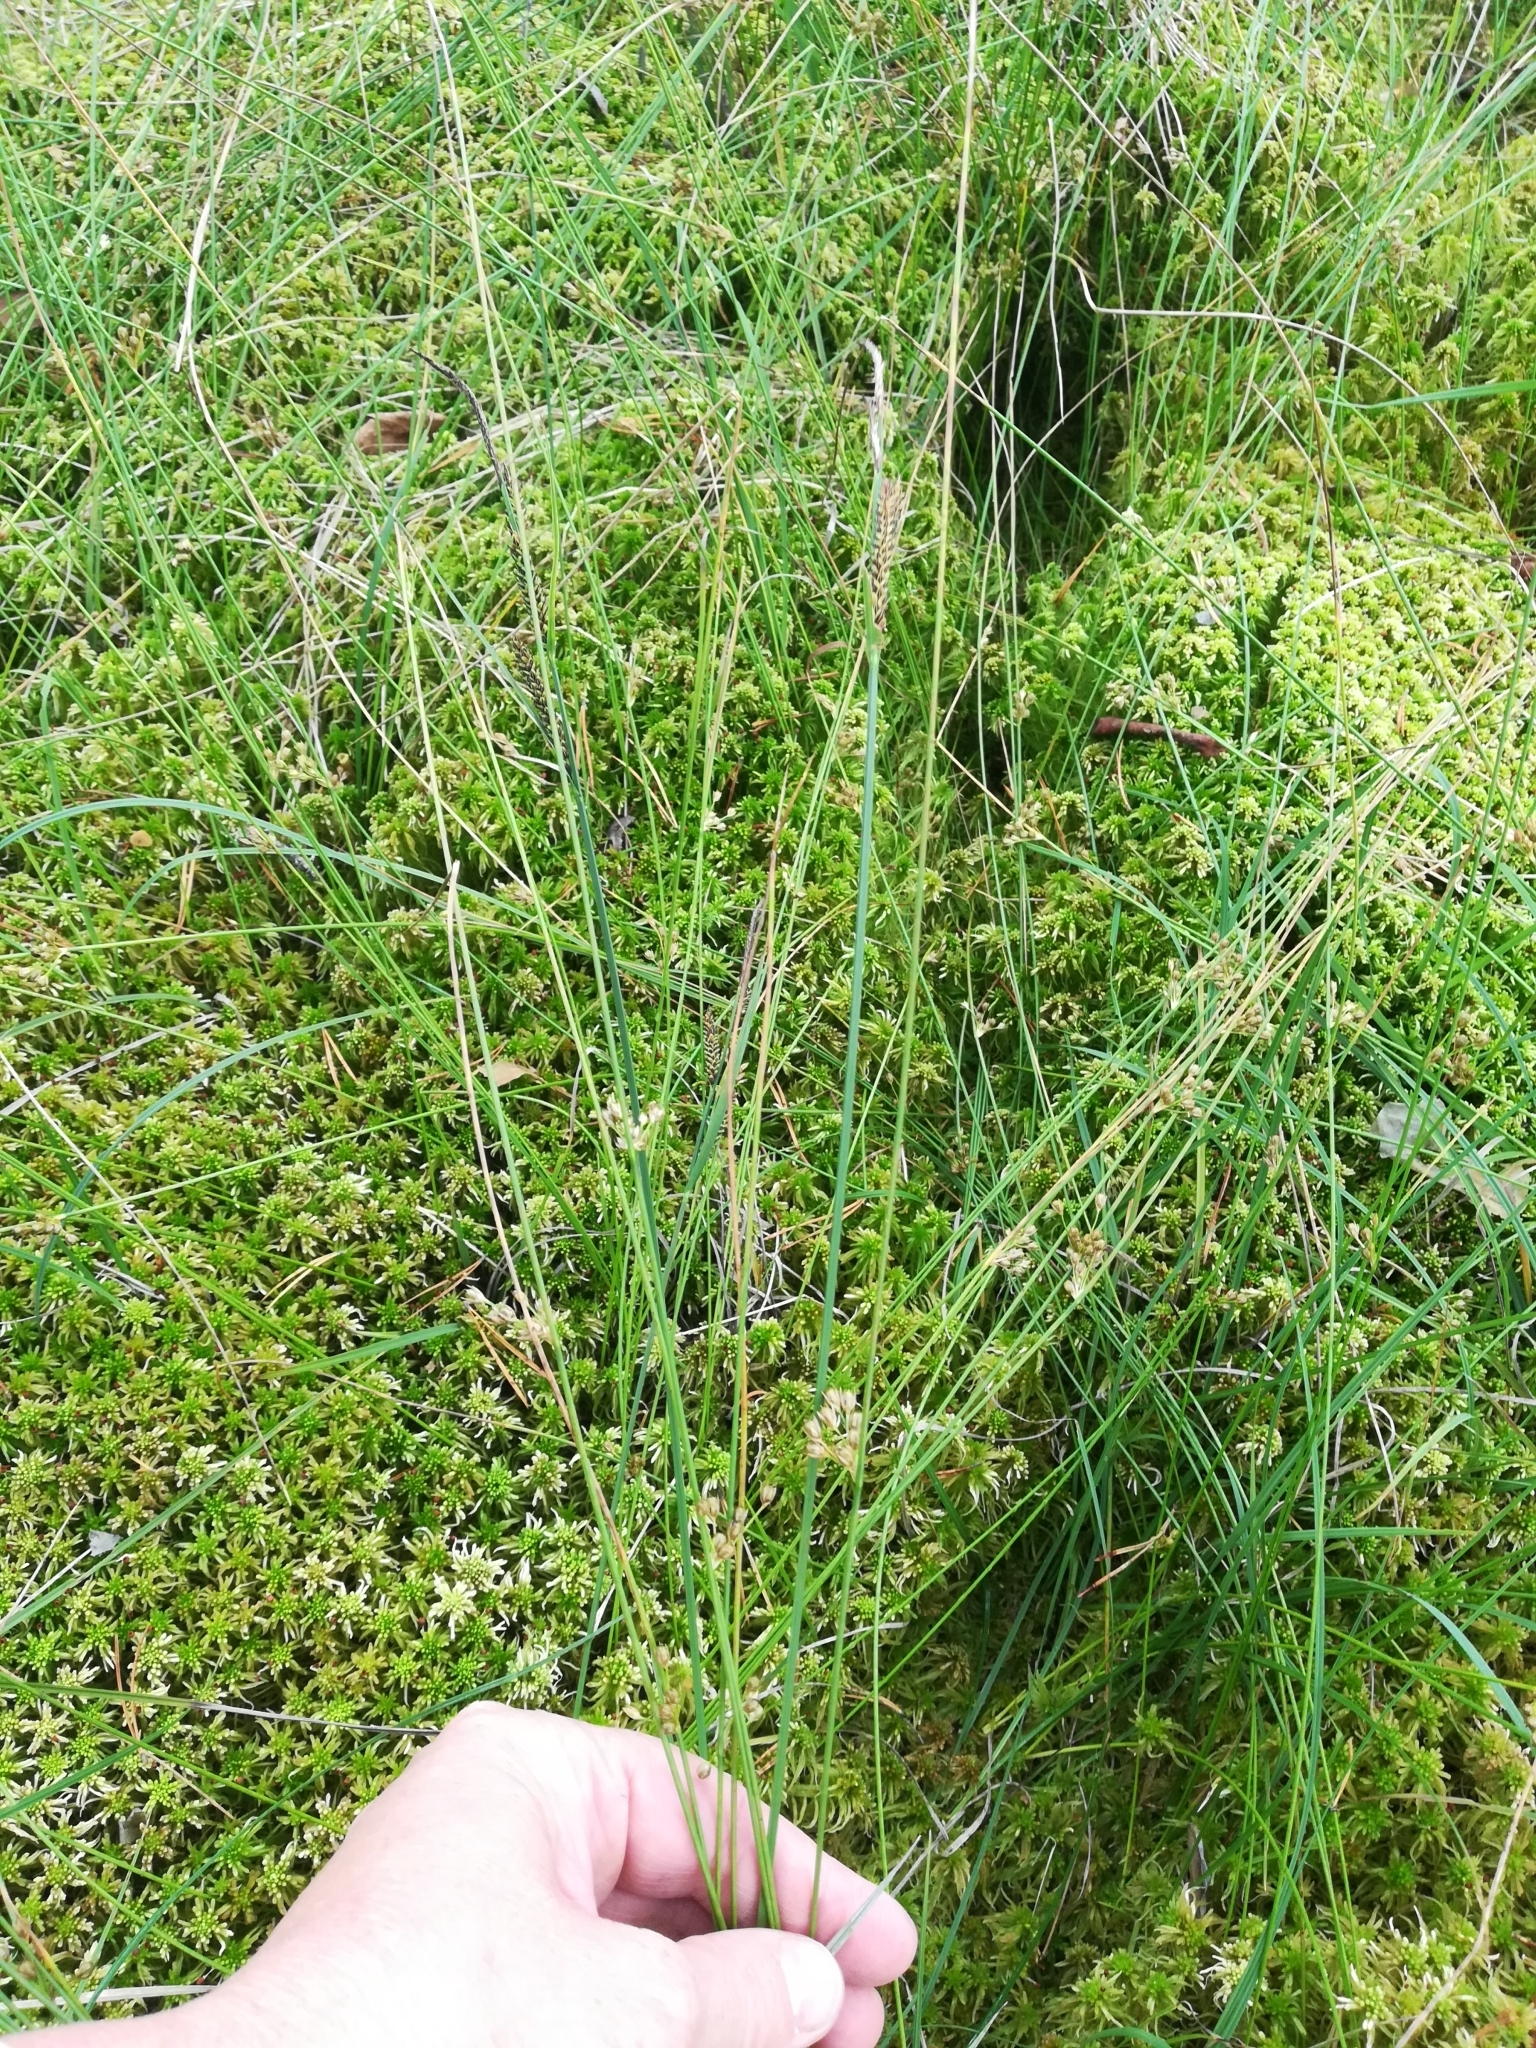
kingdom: Plantae
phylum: Tracheophyta
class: Liliopsida
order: Poales
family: Juncaceae
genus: Juncus
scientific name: Juncus filiformis
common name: Thread rush
